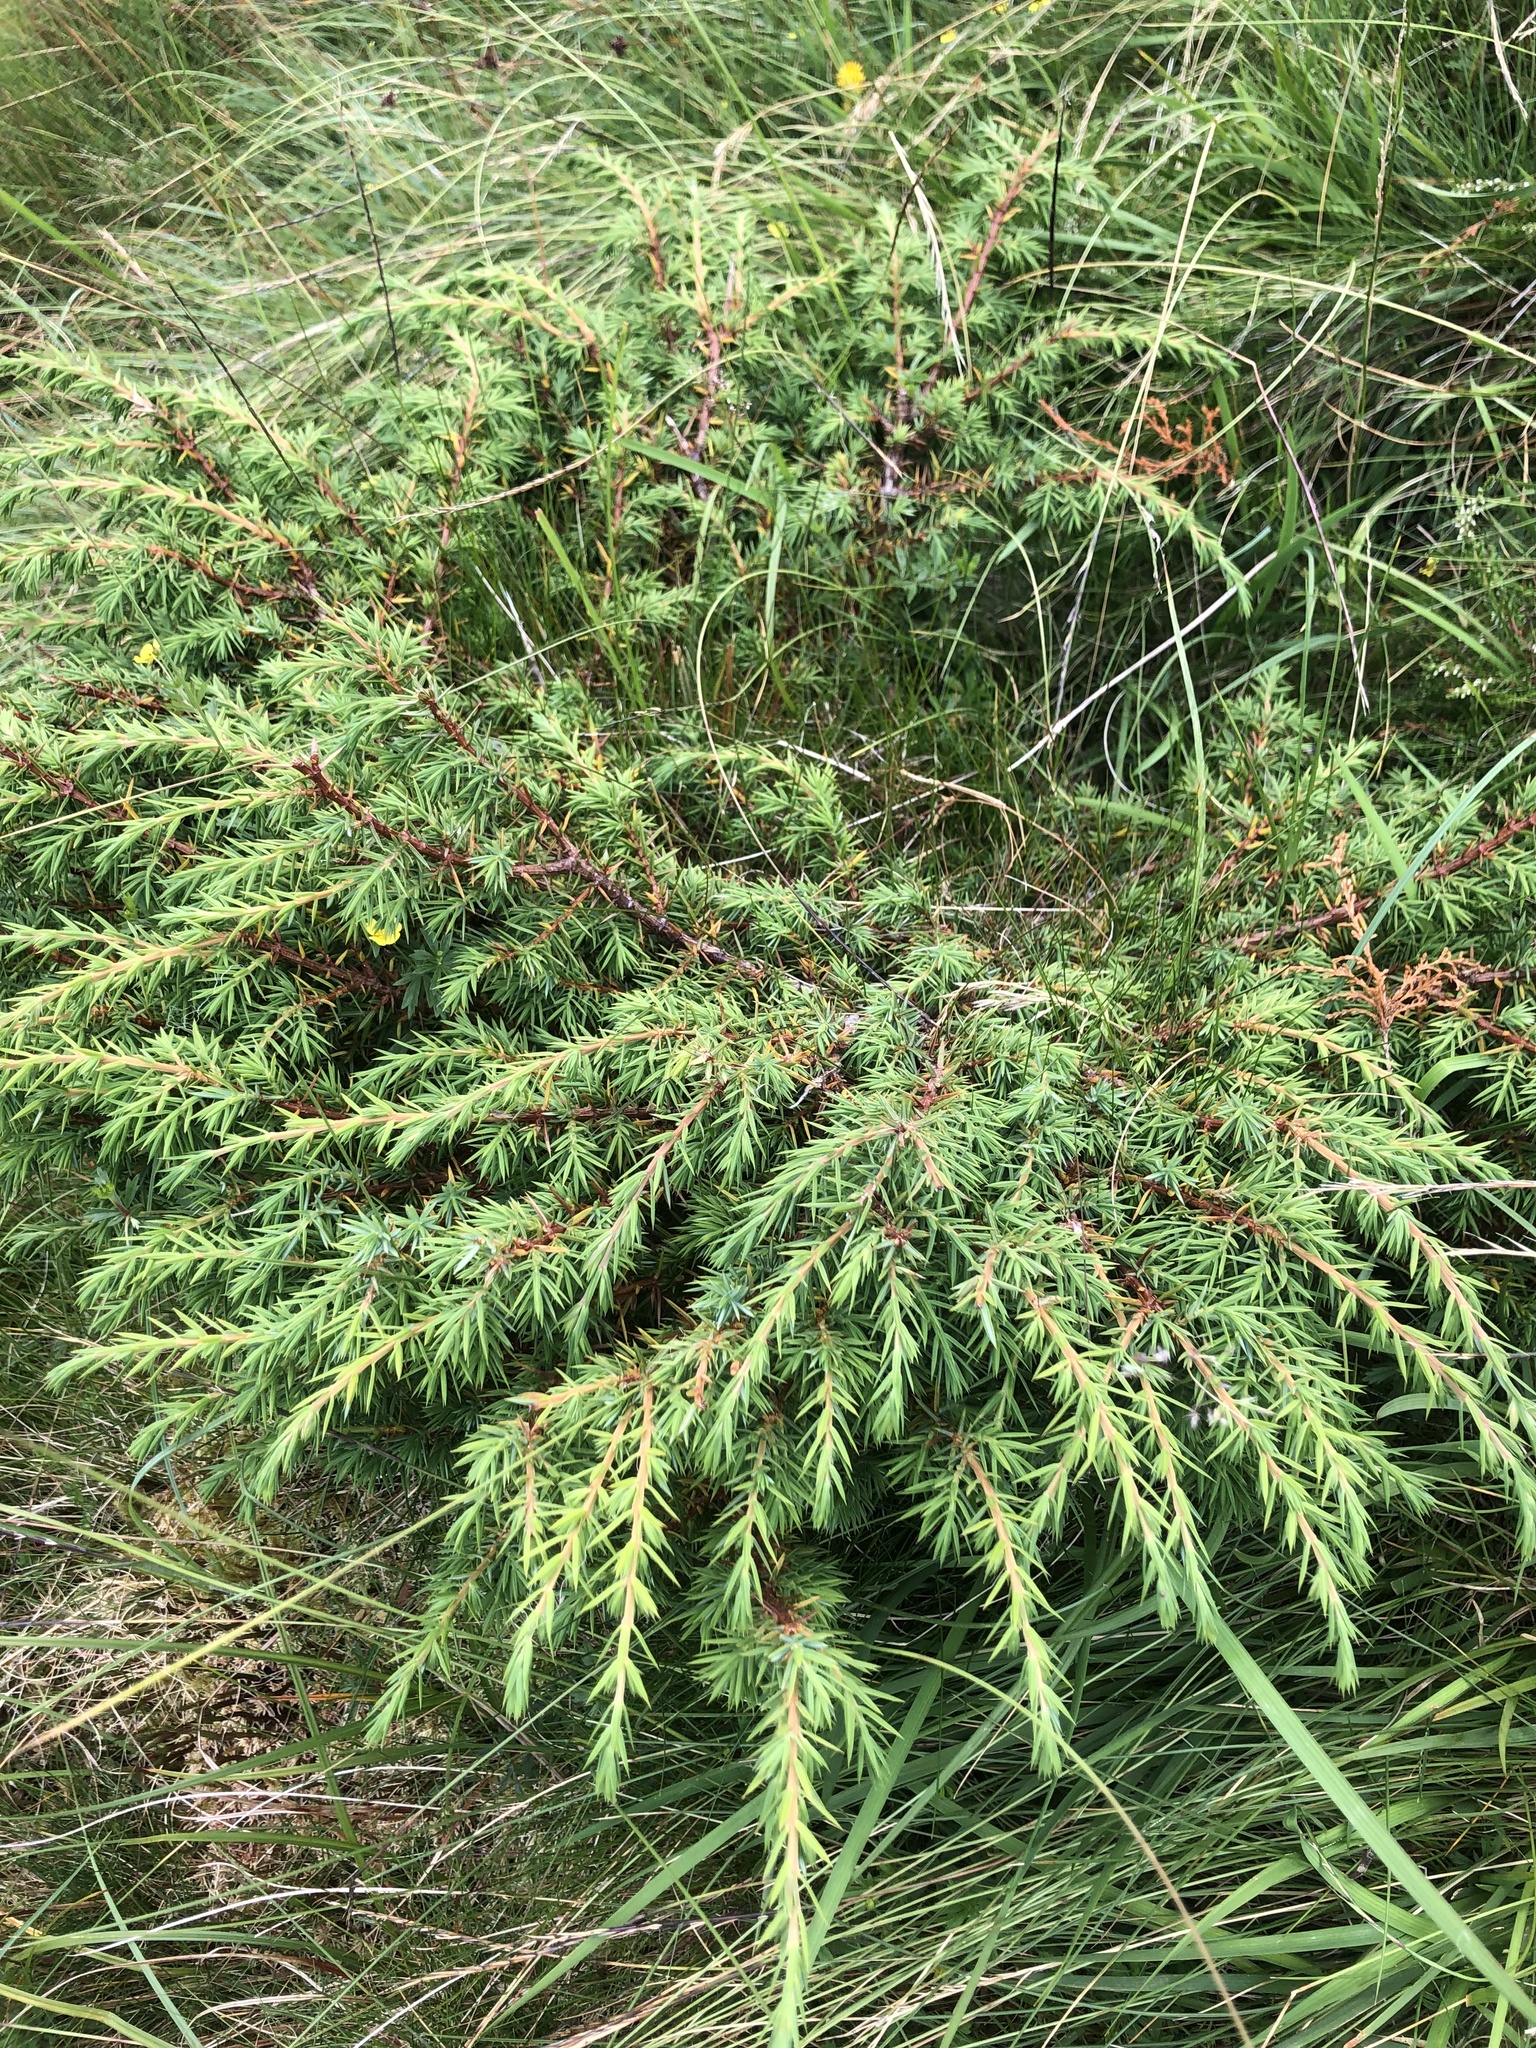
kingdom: Plantae
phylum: Tracheophyta
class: Pinopsida
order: Pinales
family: Cupressaceae
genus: Juniperus
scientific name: Juniperus communis
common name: Common juniper
